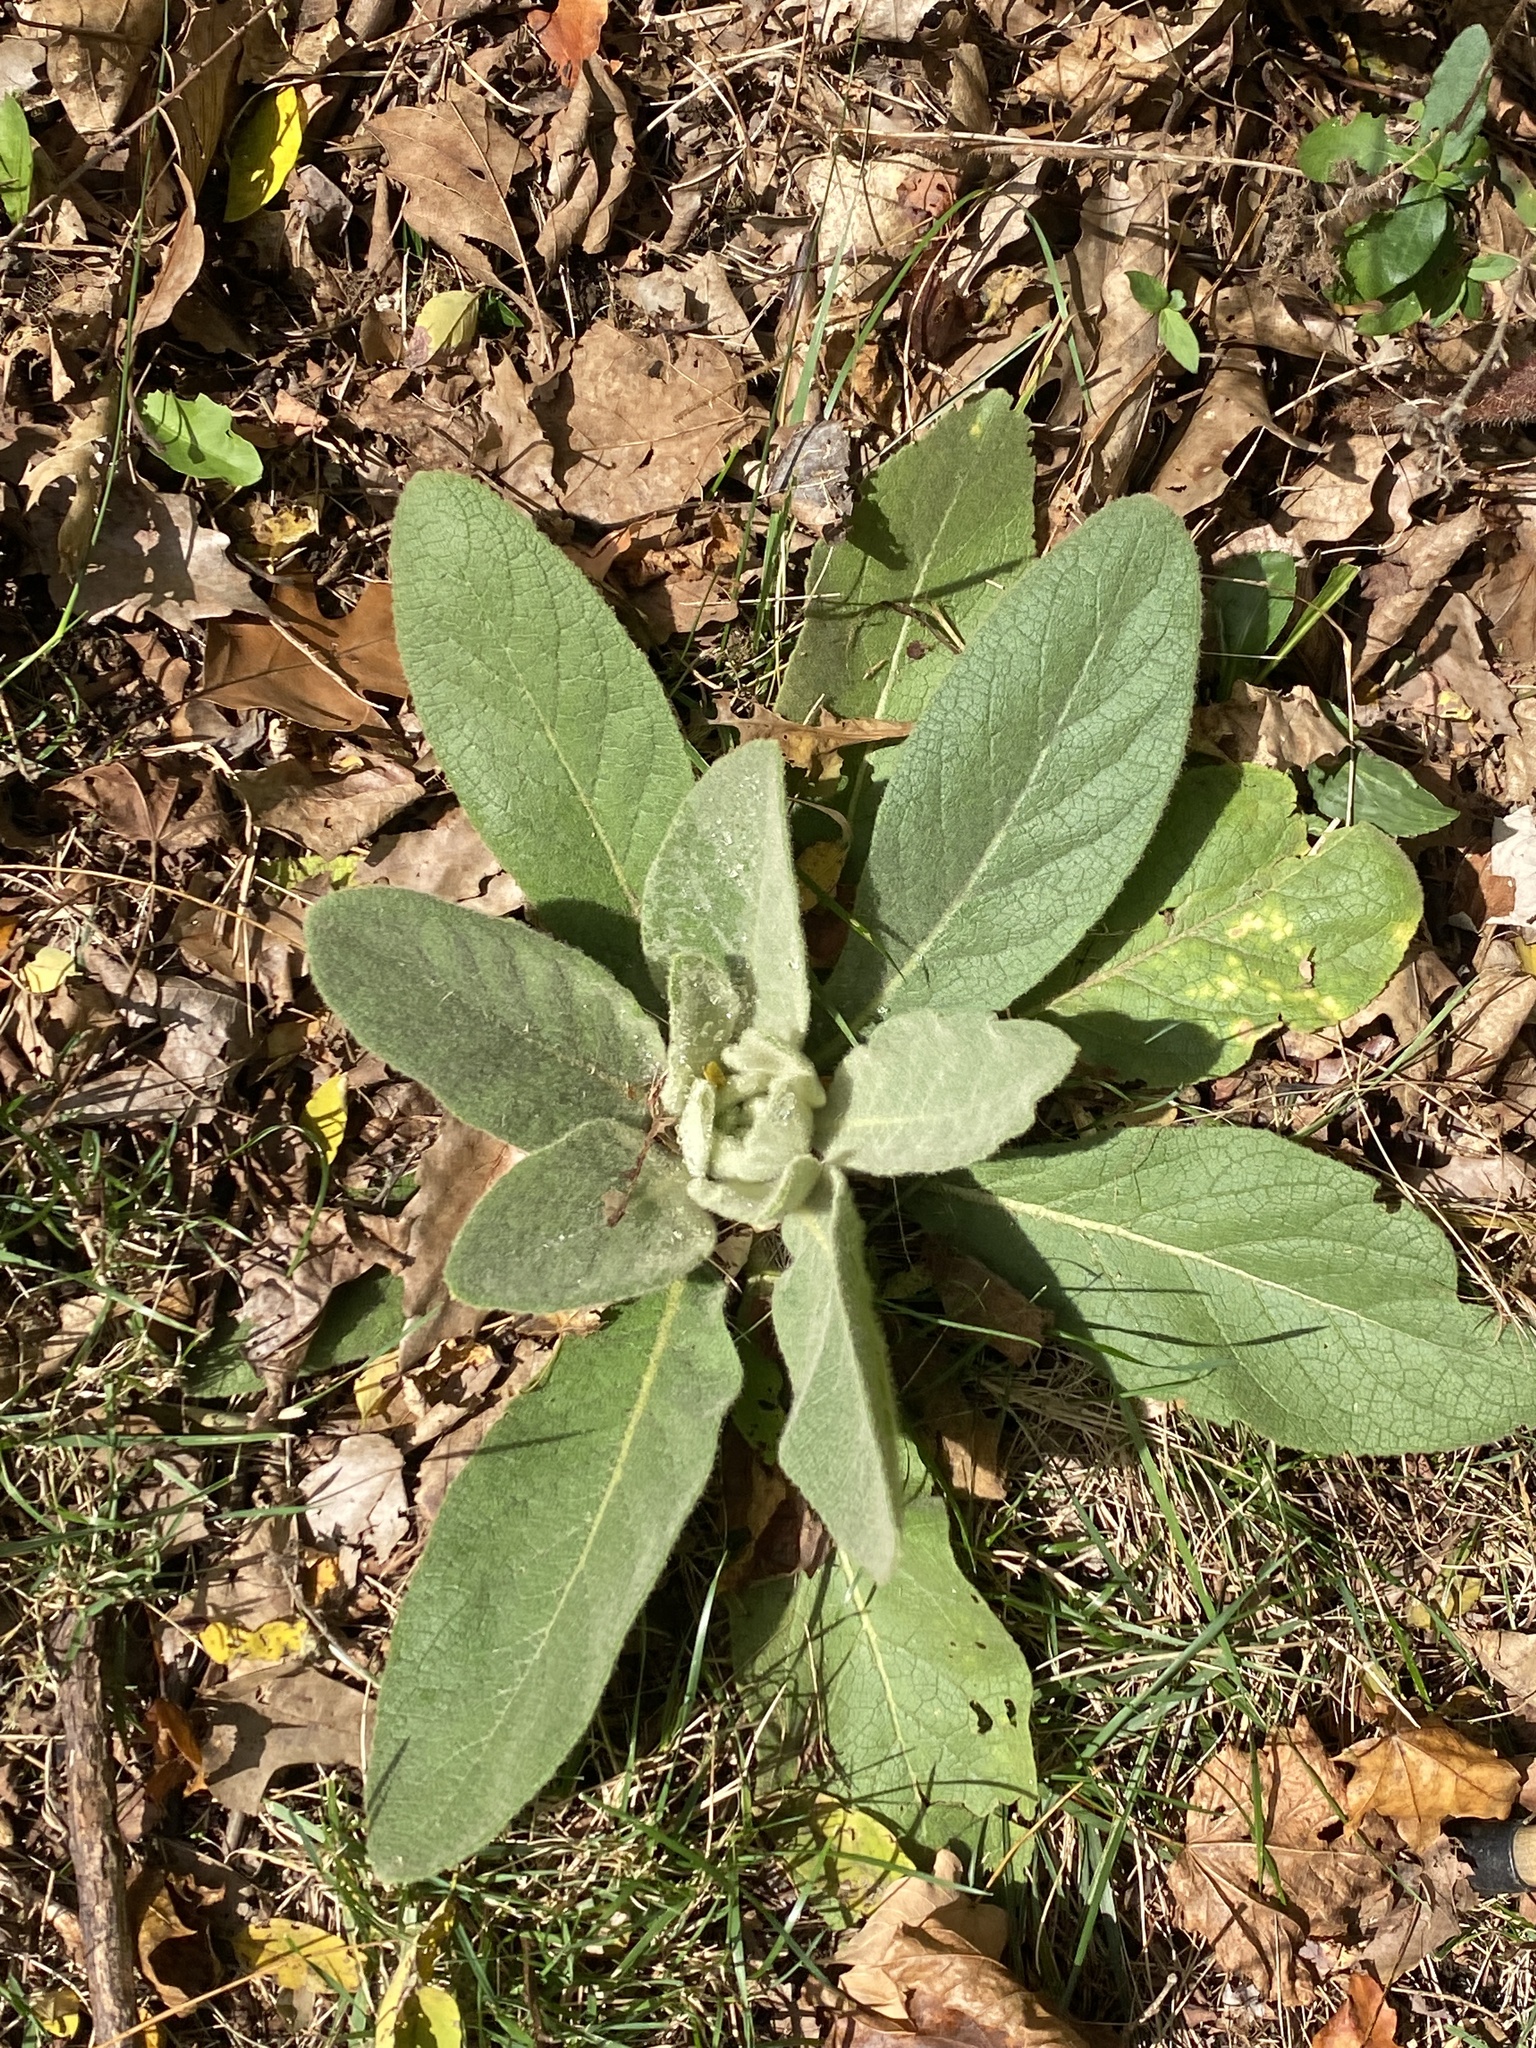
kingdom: Plantae
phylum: Tracheophyta
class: Magnoliopsida
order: Lamiales
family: Scrophulariaceae
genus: Verbascum
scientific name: Verbascum thapsus
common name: Common mullein
